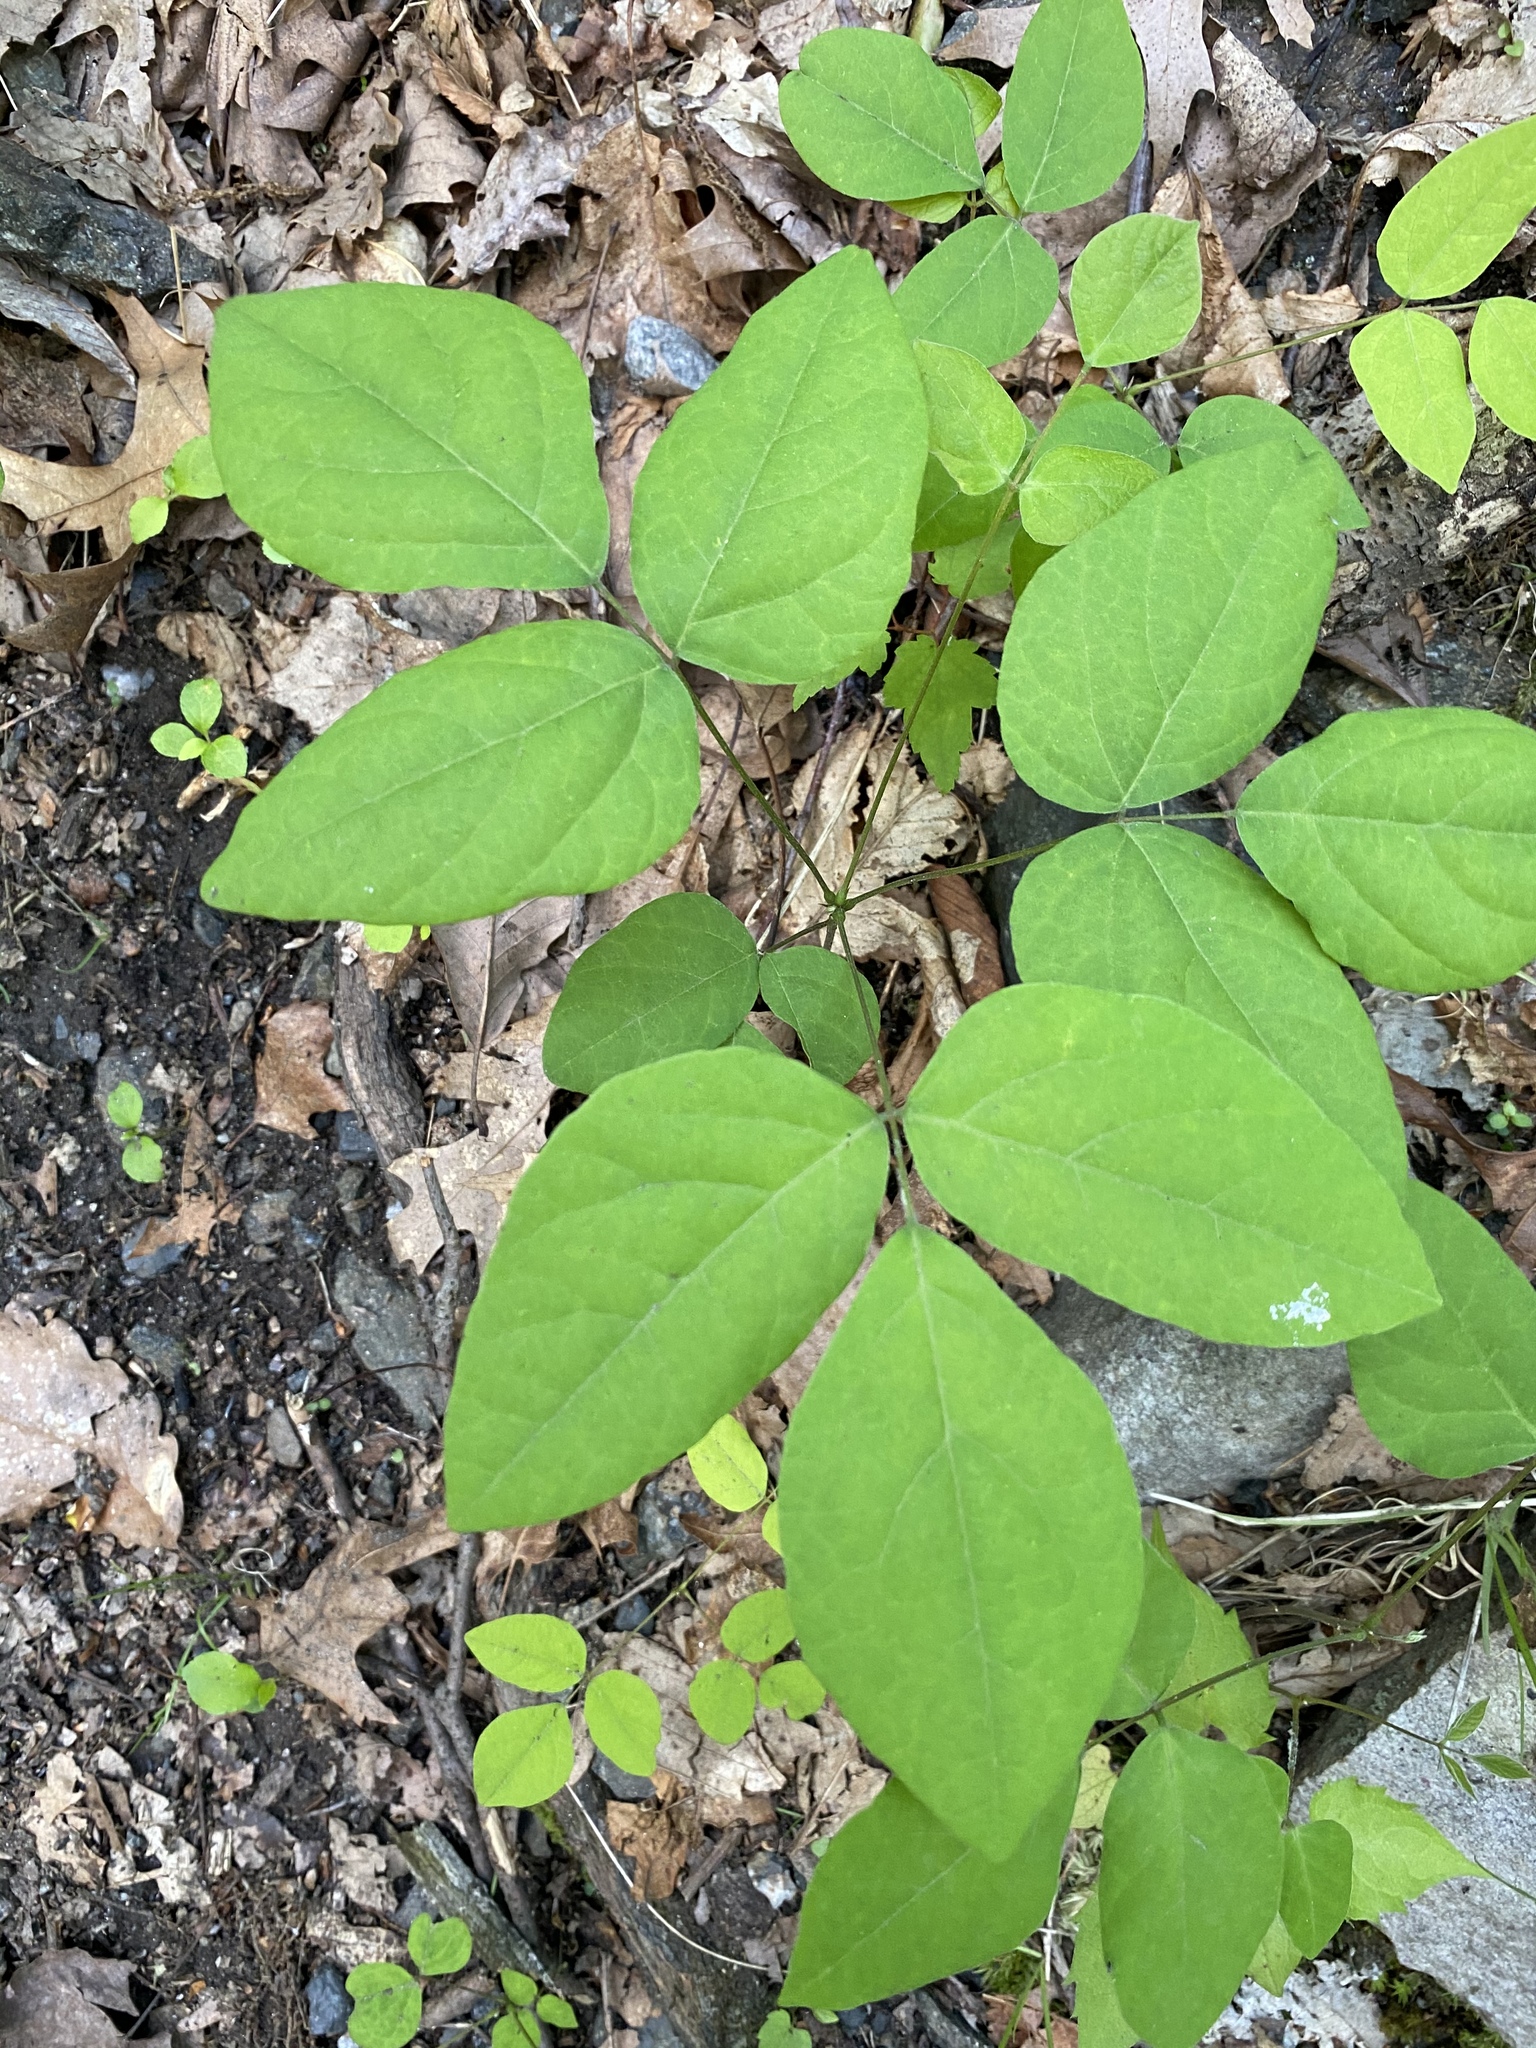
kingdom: Plantae
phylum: Tracheophyta
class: Magnoliopsida
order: Fabales
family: Fabaceae
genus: Hylodesmum
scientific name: Hylodesmum nudiflorum
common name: Bare-stemmed tick-trefoil
